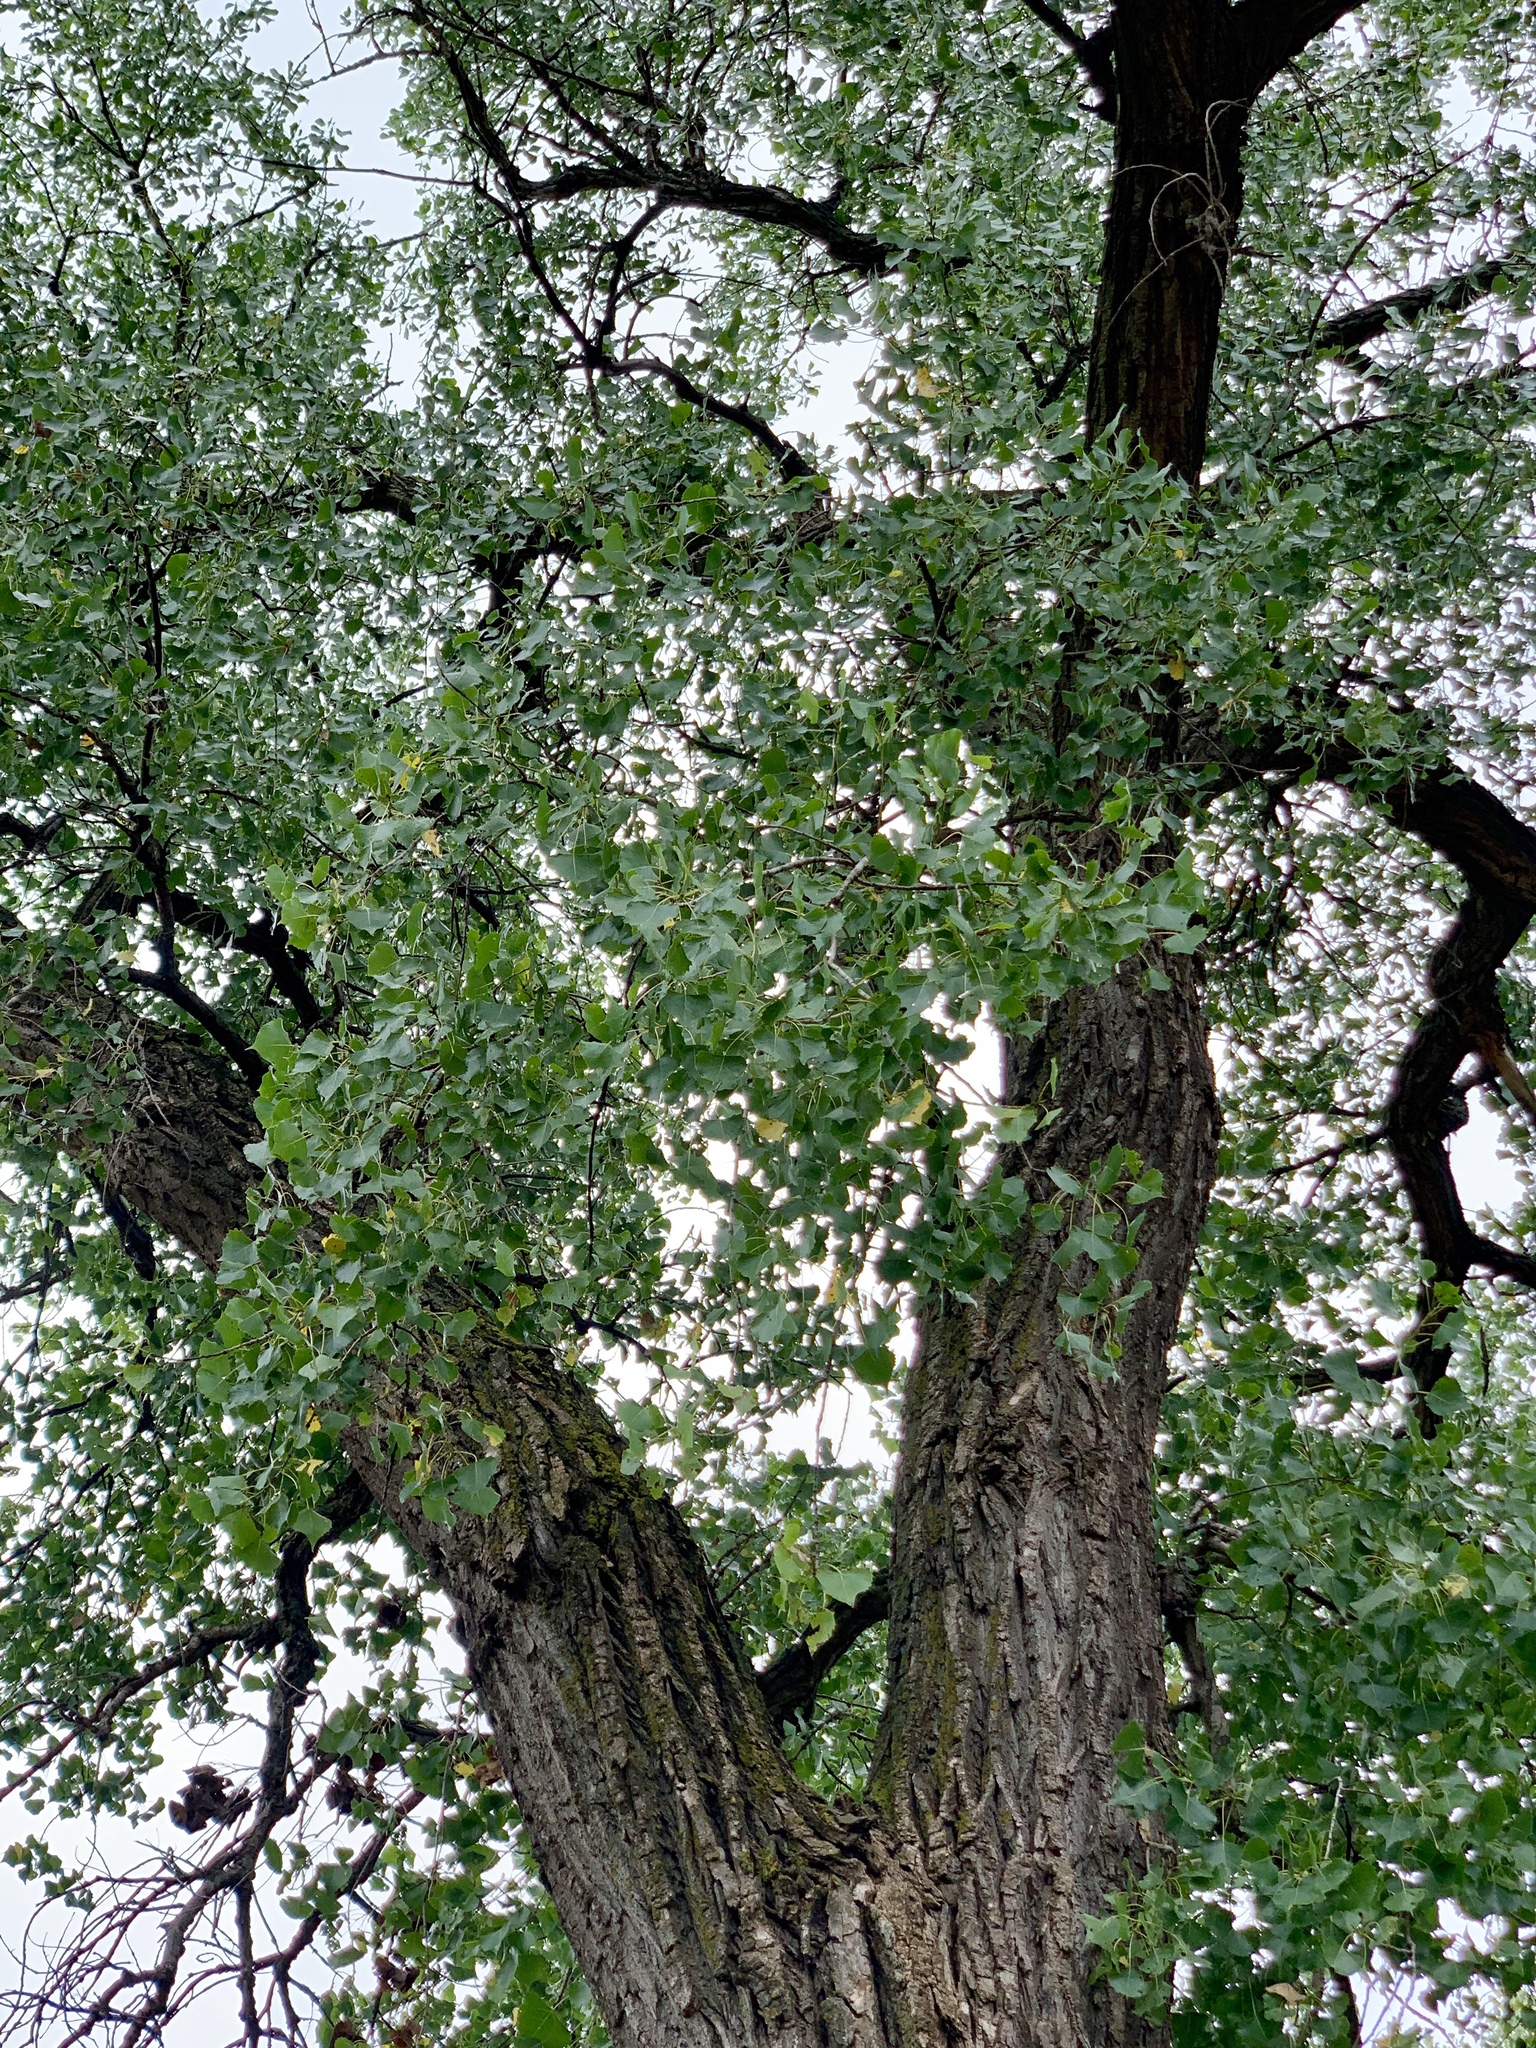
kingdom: Plantae
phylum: Tracheophyta
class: Magnoliopsida
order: Malpighiales
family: Salicaceae
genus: Populus
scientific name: Populus deltoides
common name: Eastern cottonwood
